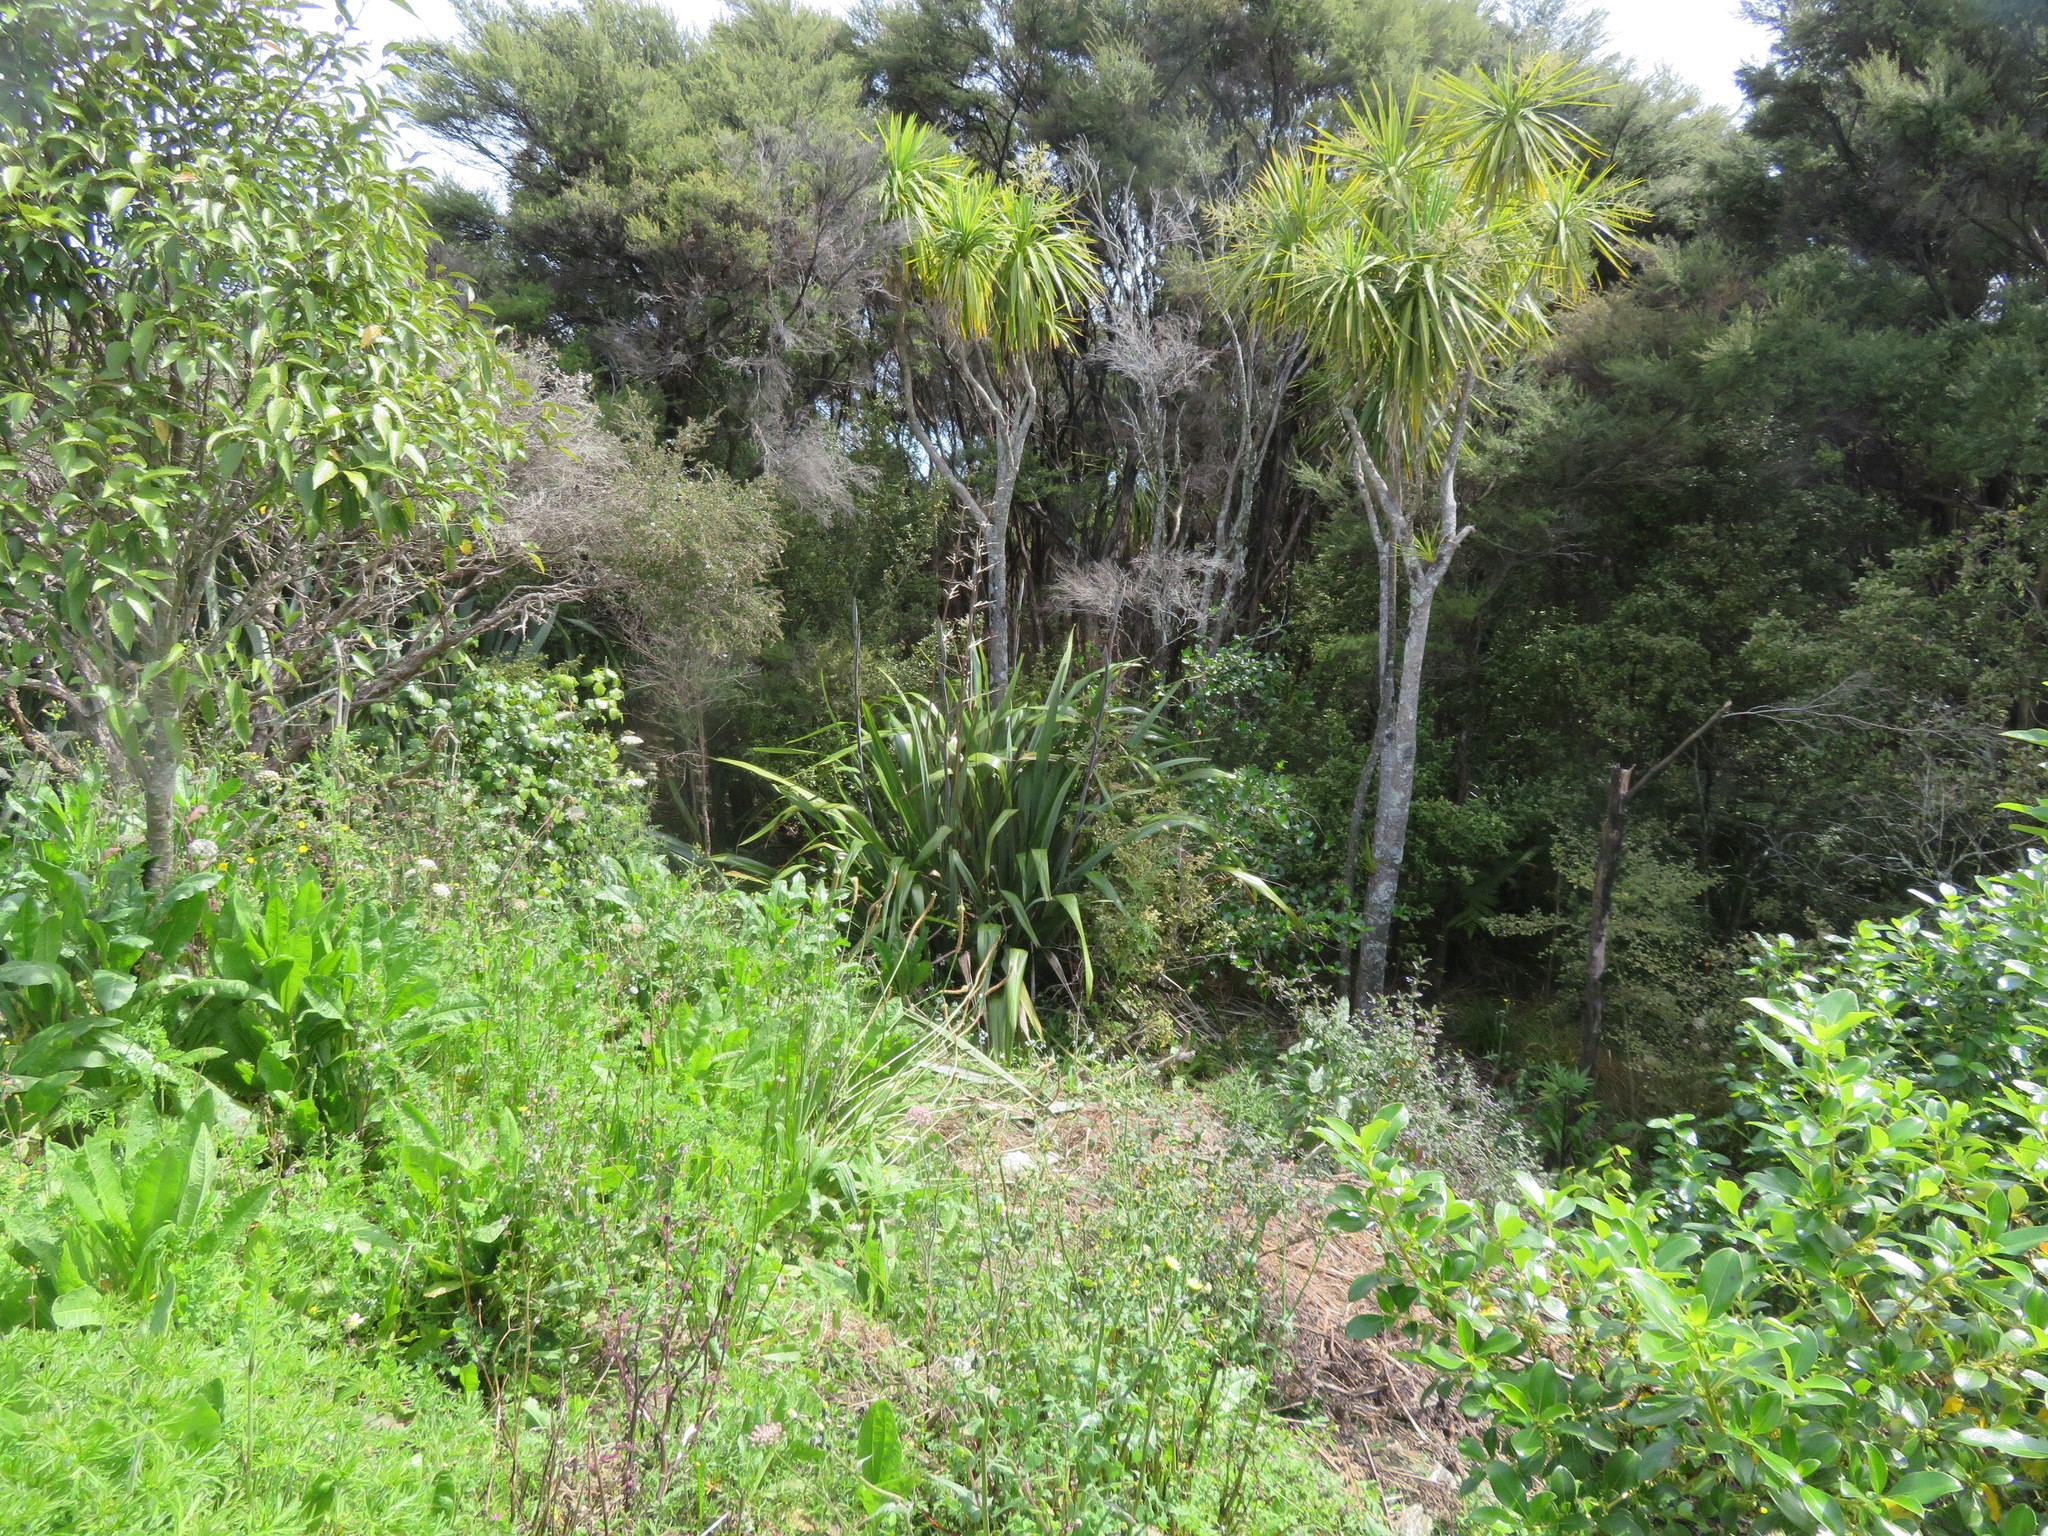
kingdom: Plantae
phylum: Tracheophyta
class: Liliopsida
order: Asparagales
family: Asparagaceae
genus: Cordyline
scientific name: Cordyline australis
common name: Cabbage-palm
